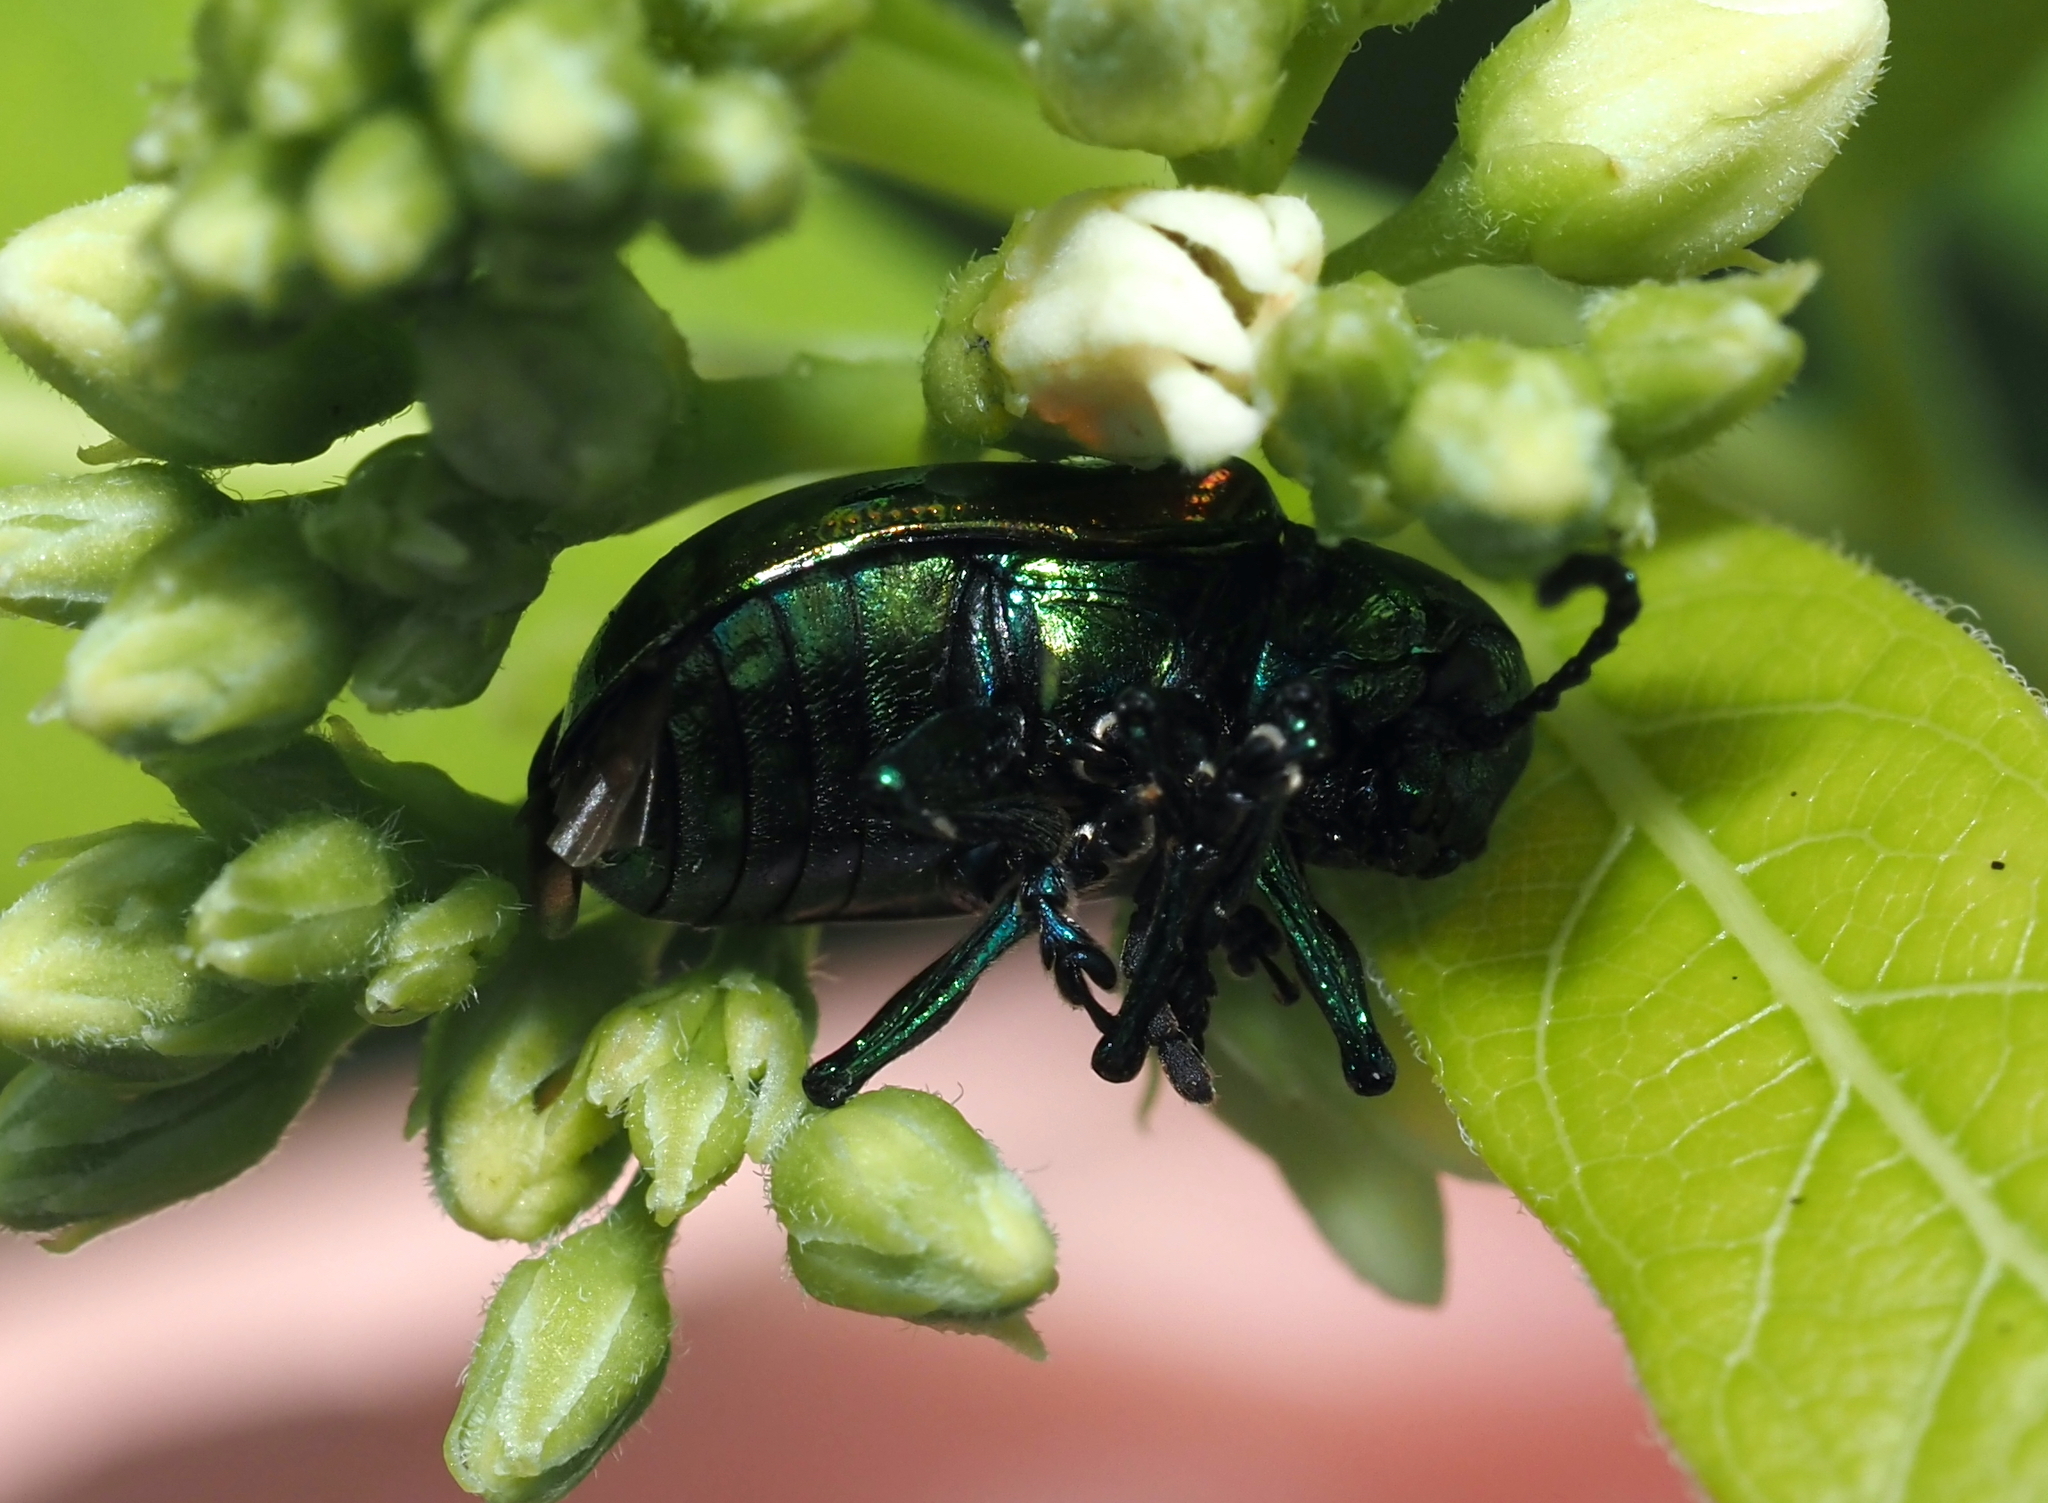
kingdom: Animalia
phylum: Arthropoda
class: Insecta
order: Coleoptera
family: Chrysomelidae
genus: Chrysochus
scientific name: Chrysochus auratus
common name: Dogbane leaf beetle
